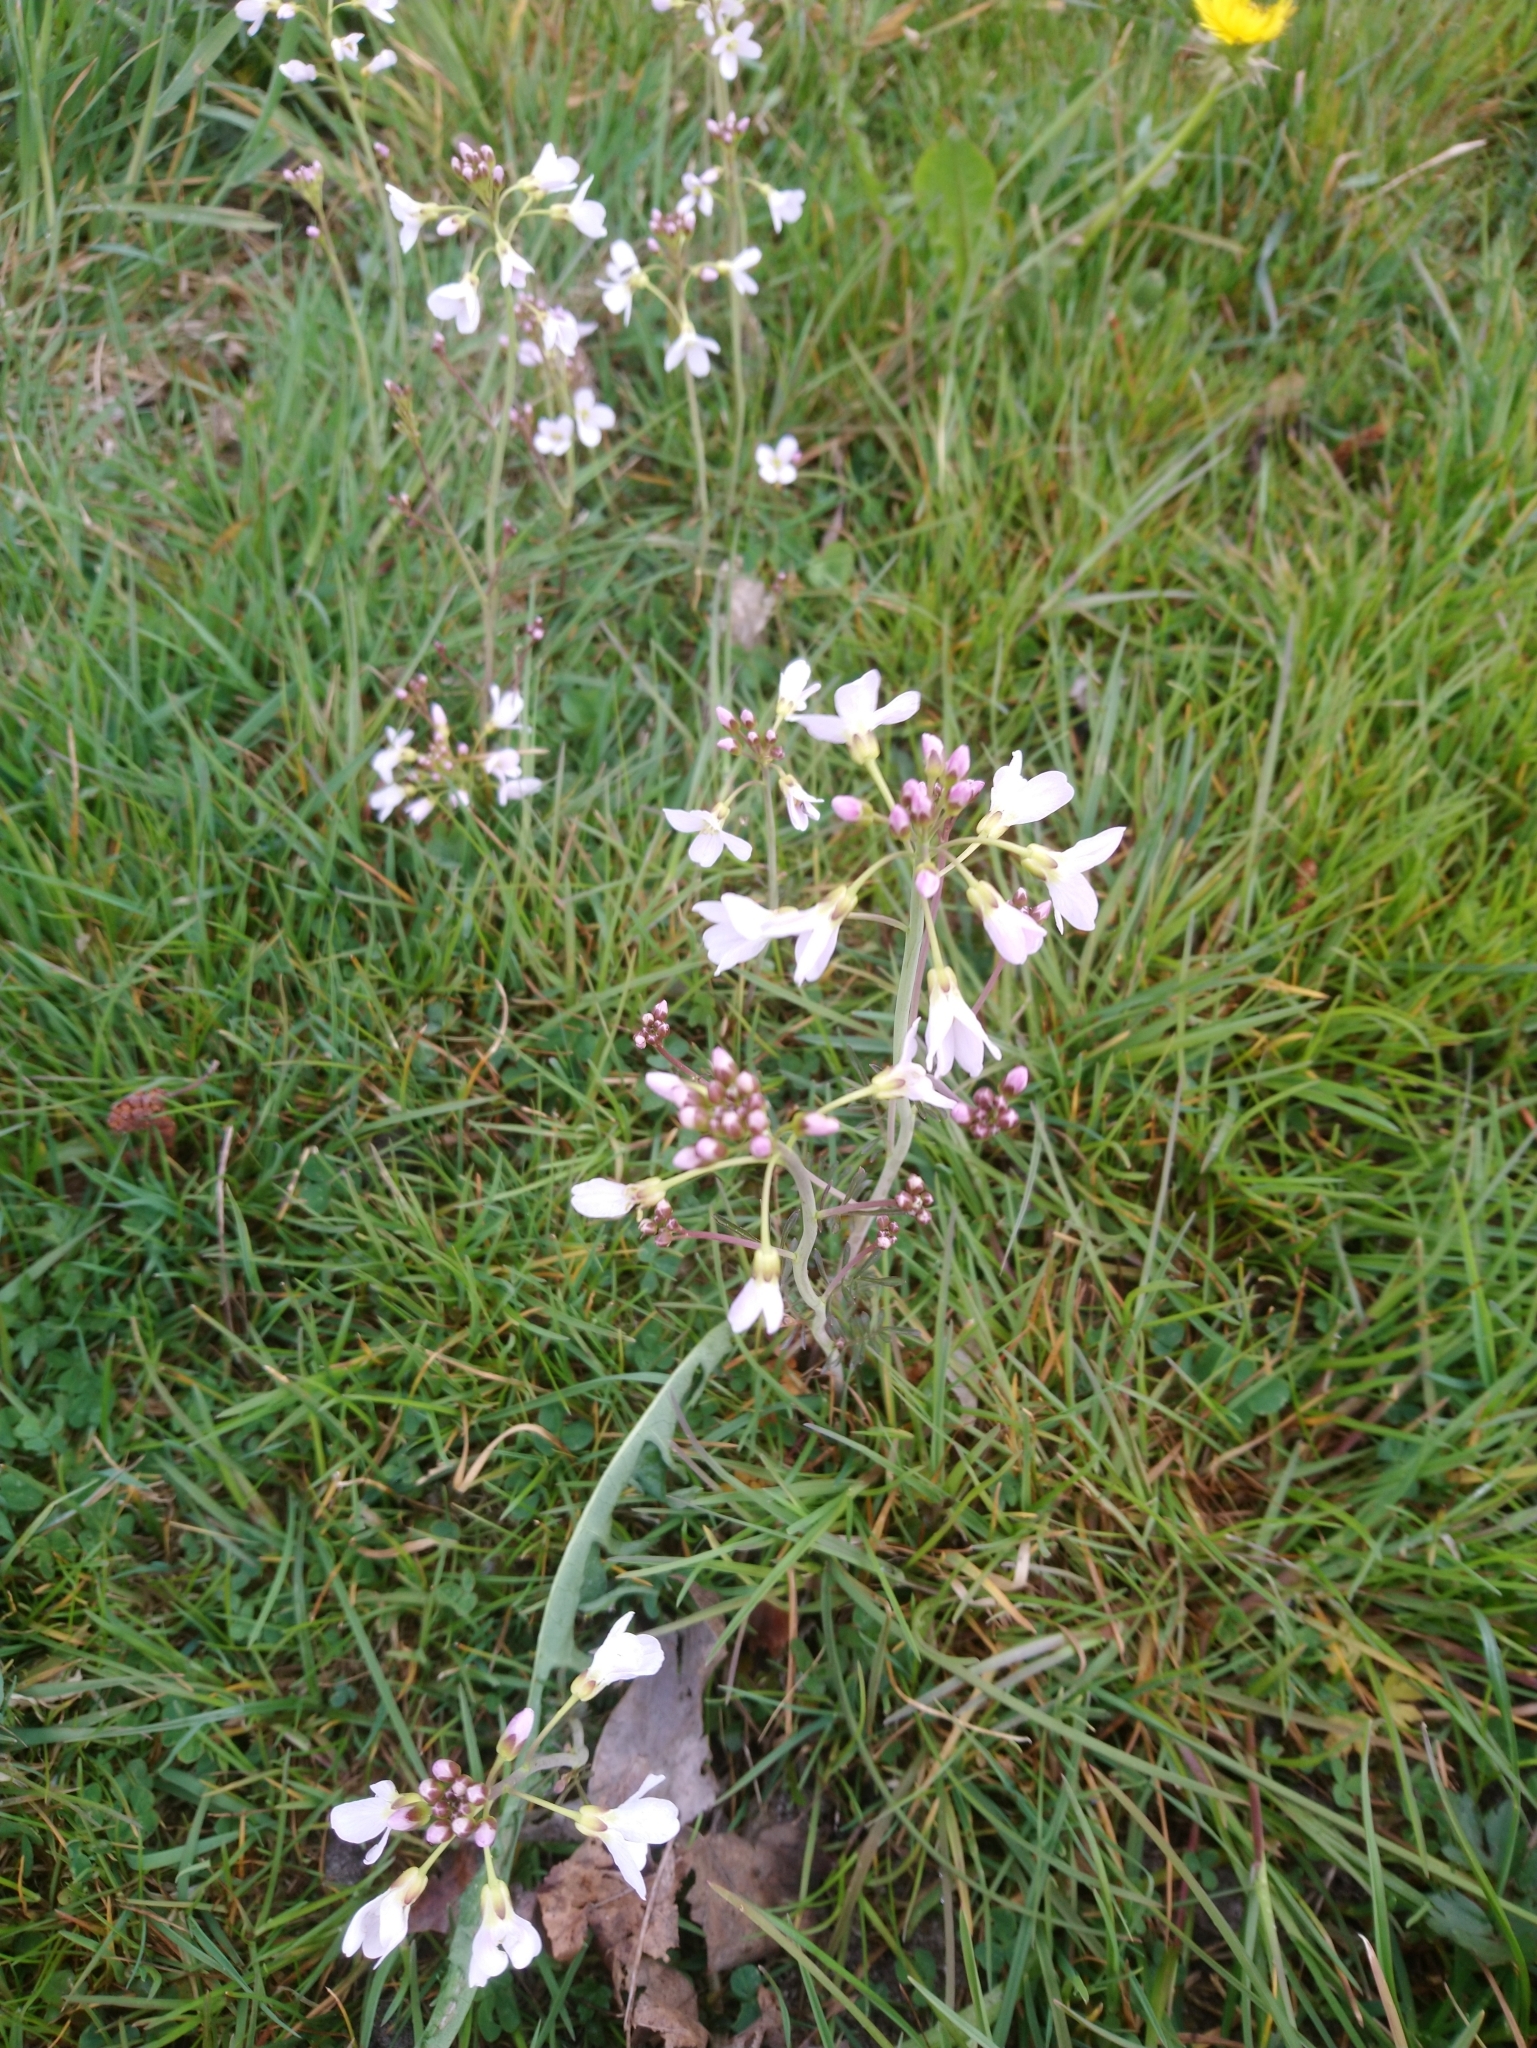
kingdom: Plantae
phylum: Tracheophyta
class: Magnoliopsida
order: Brassicales
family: Brassicaceae
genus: Cardamine
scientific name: Cardamine pratensis
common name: Cuckoo flower
